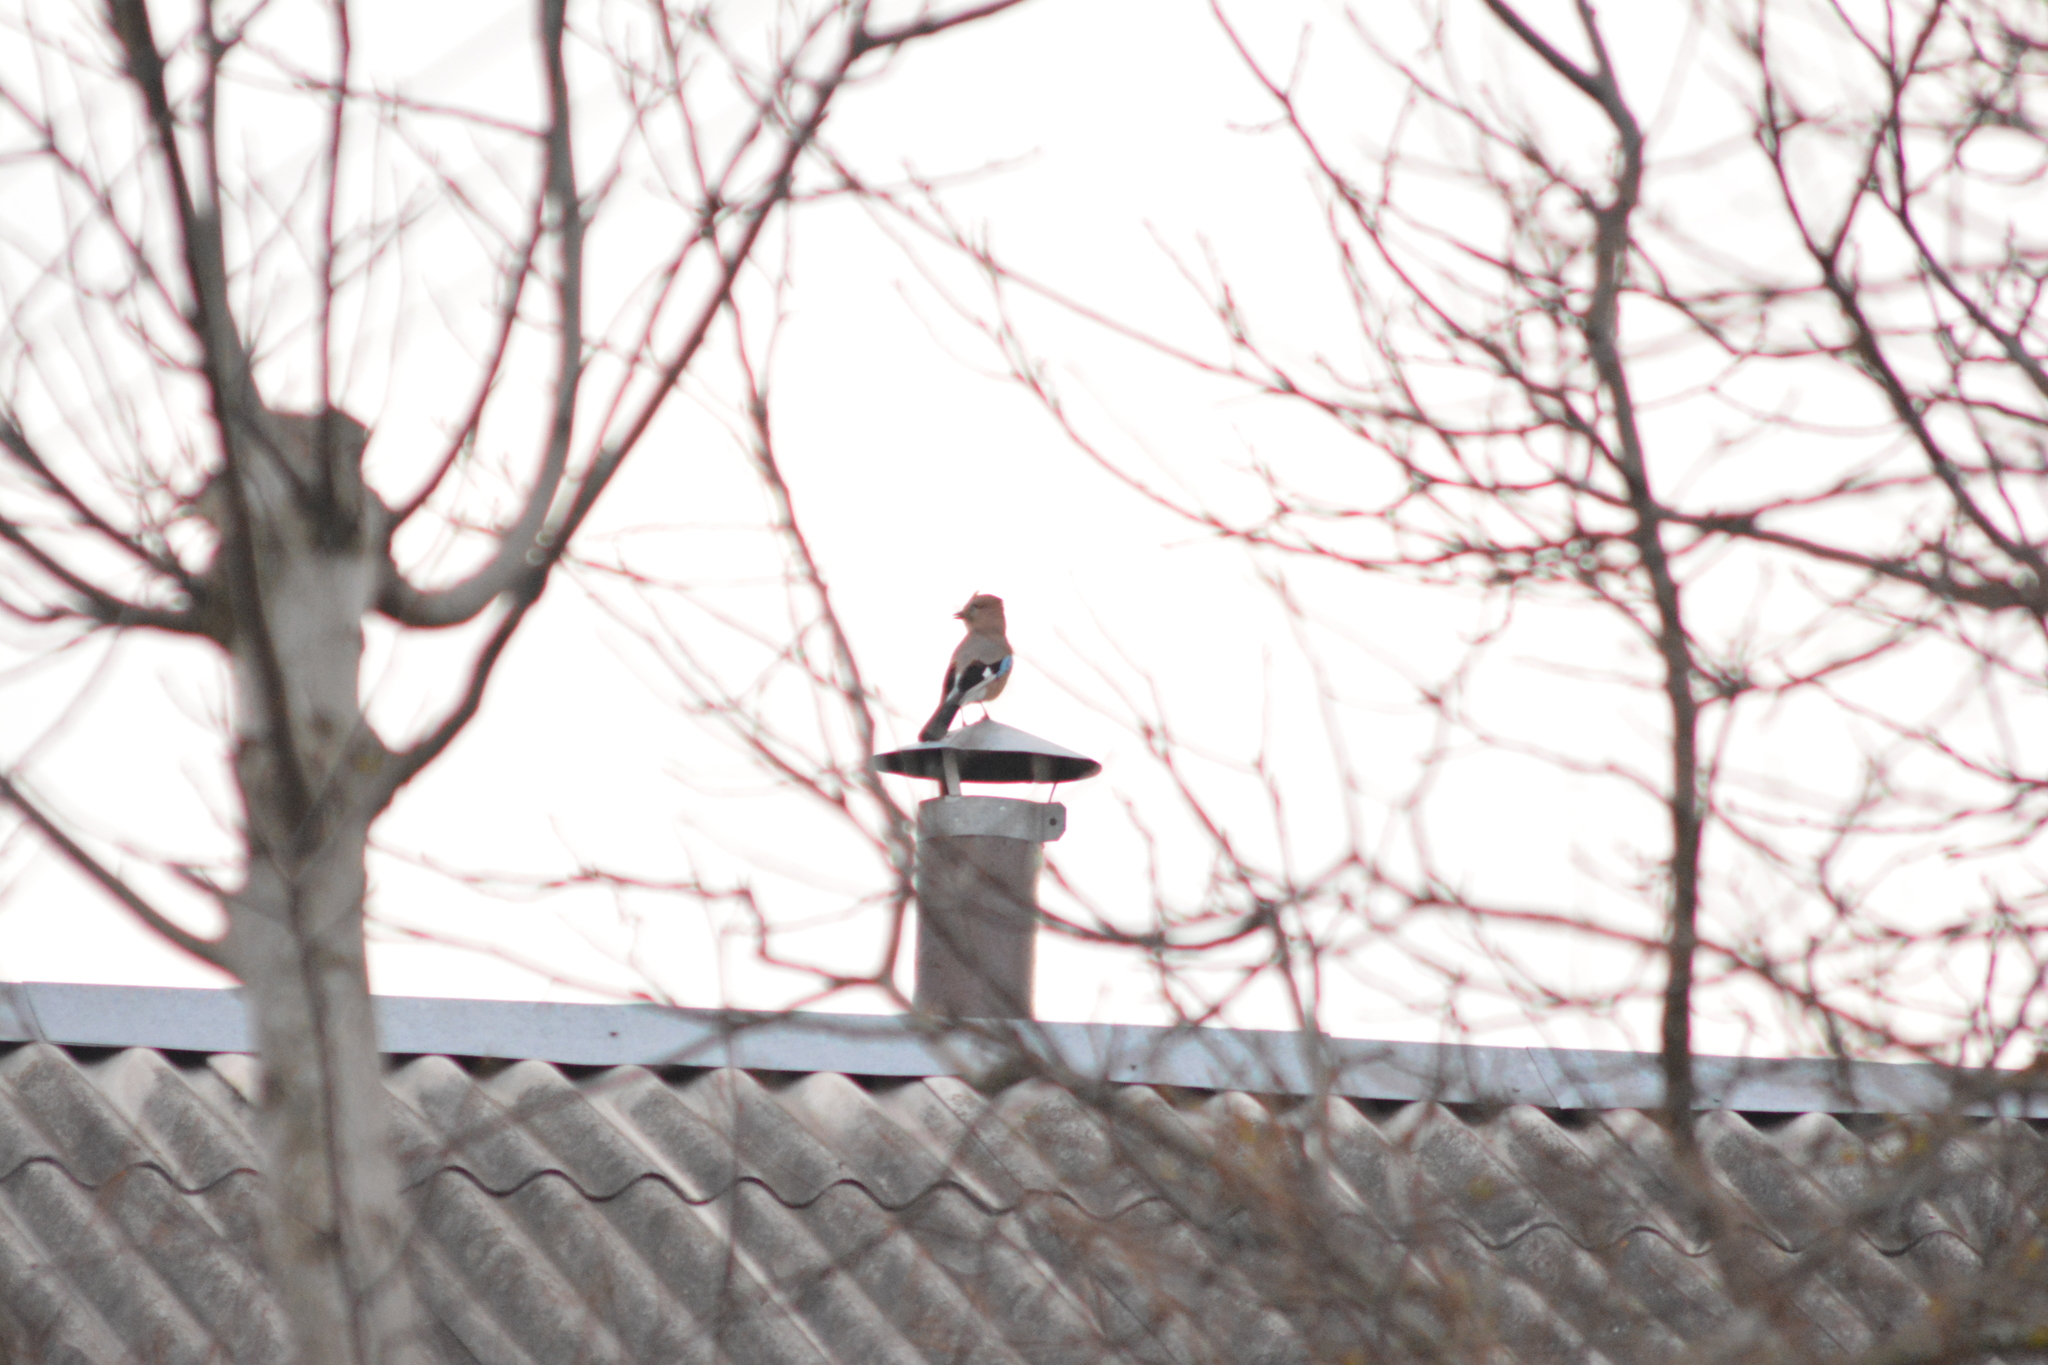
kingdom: Animalia
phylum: Chordata
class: Aves
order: Passeriformes
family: Corvidae
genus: Garrulus
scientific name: Garrulus glandarius
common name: Eurasian jay
